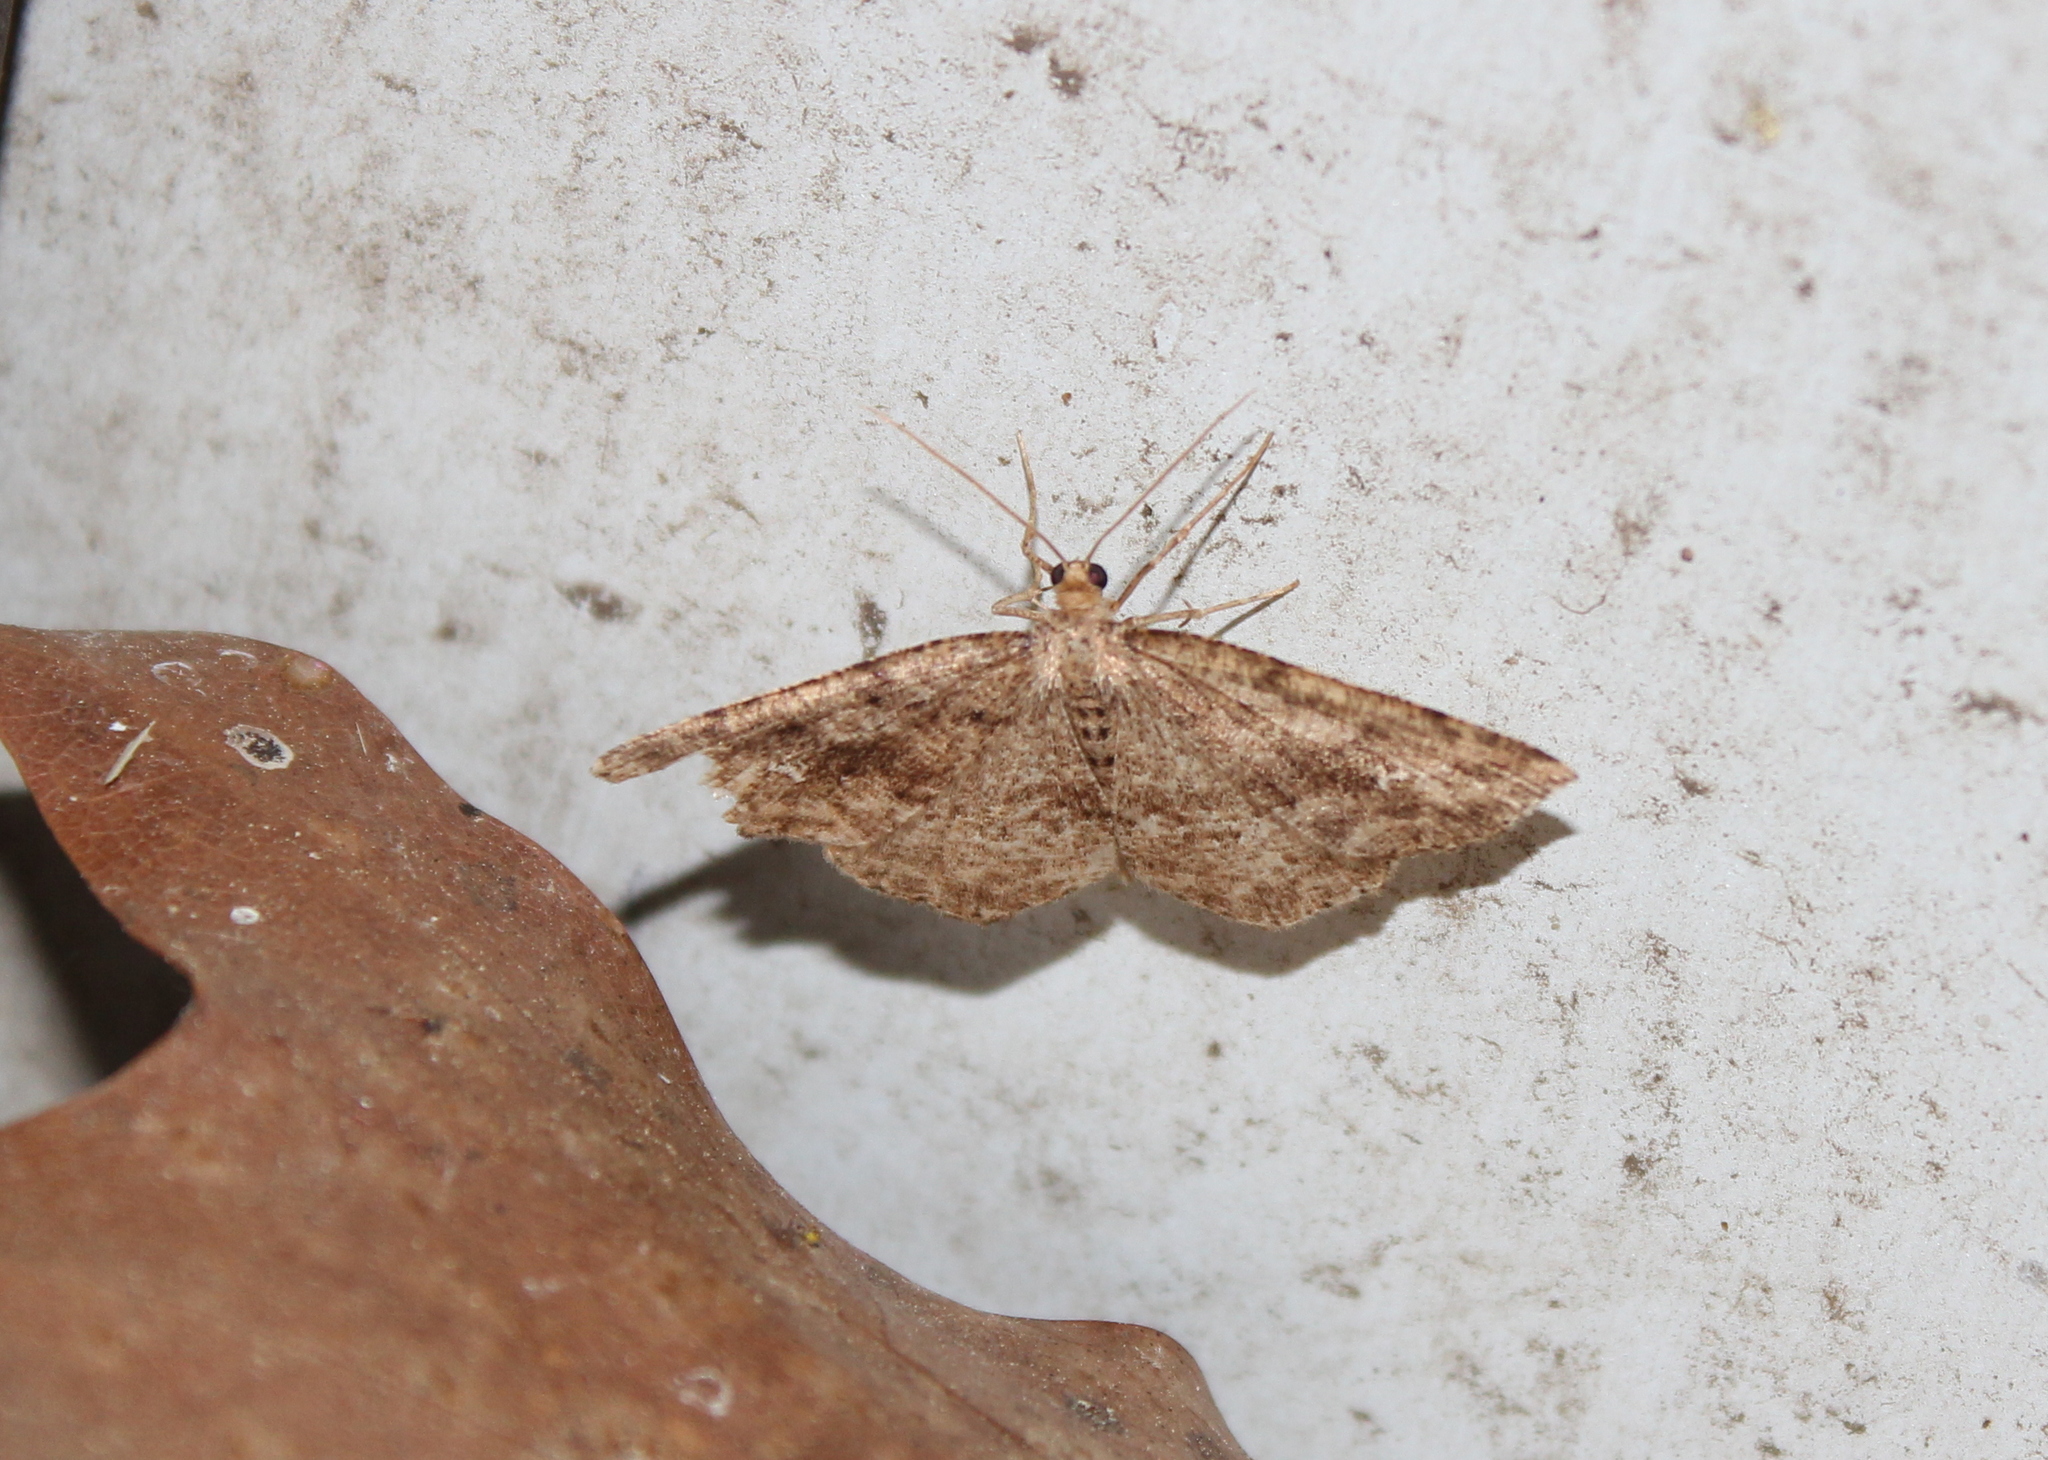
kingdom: Animalia
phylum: Arthropoda
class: Insecta
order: Lepidoptera
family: Geometridae
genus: Homochlodes
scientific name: Homochlodes fritillaria
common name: Pale homochlodes
